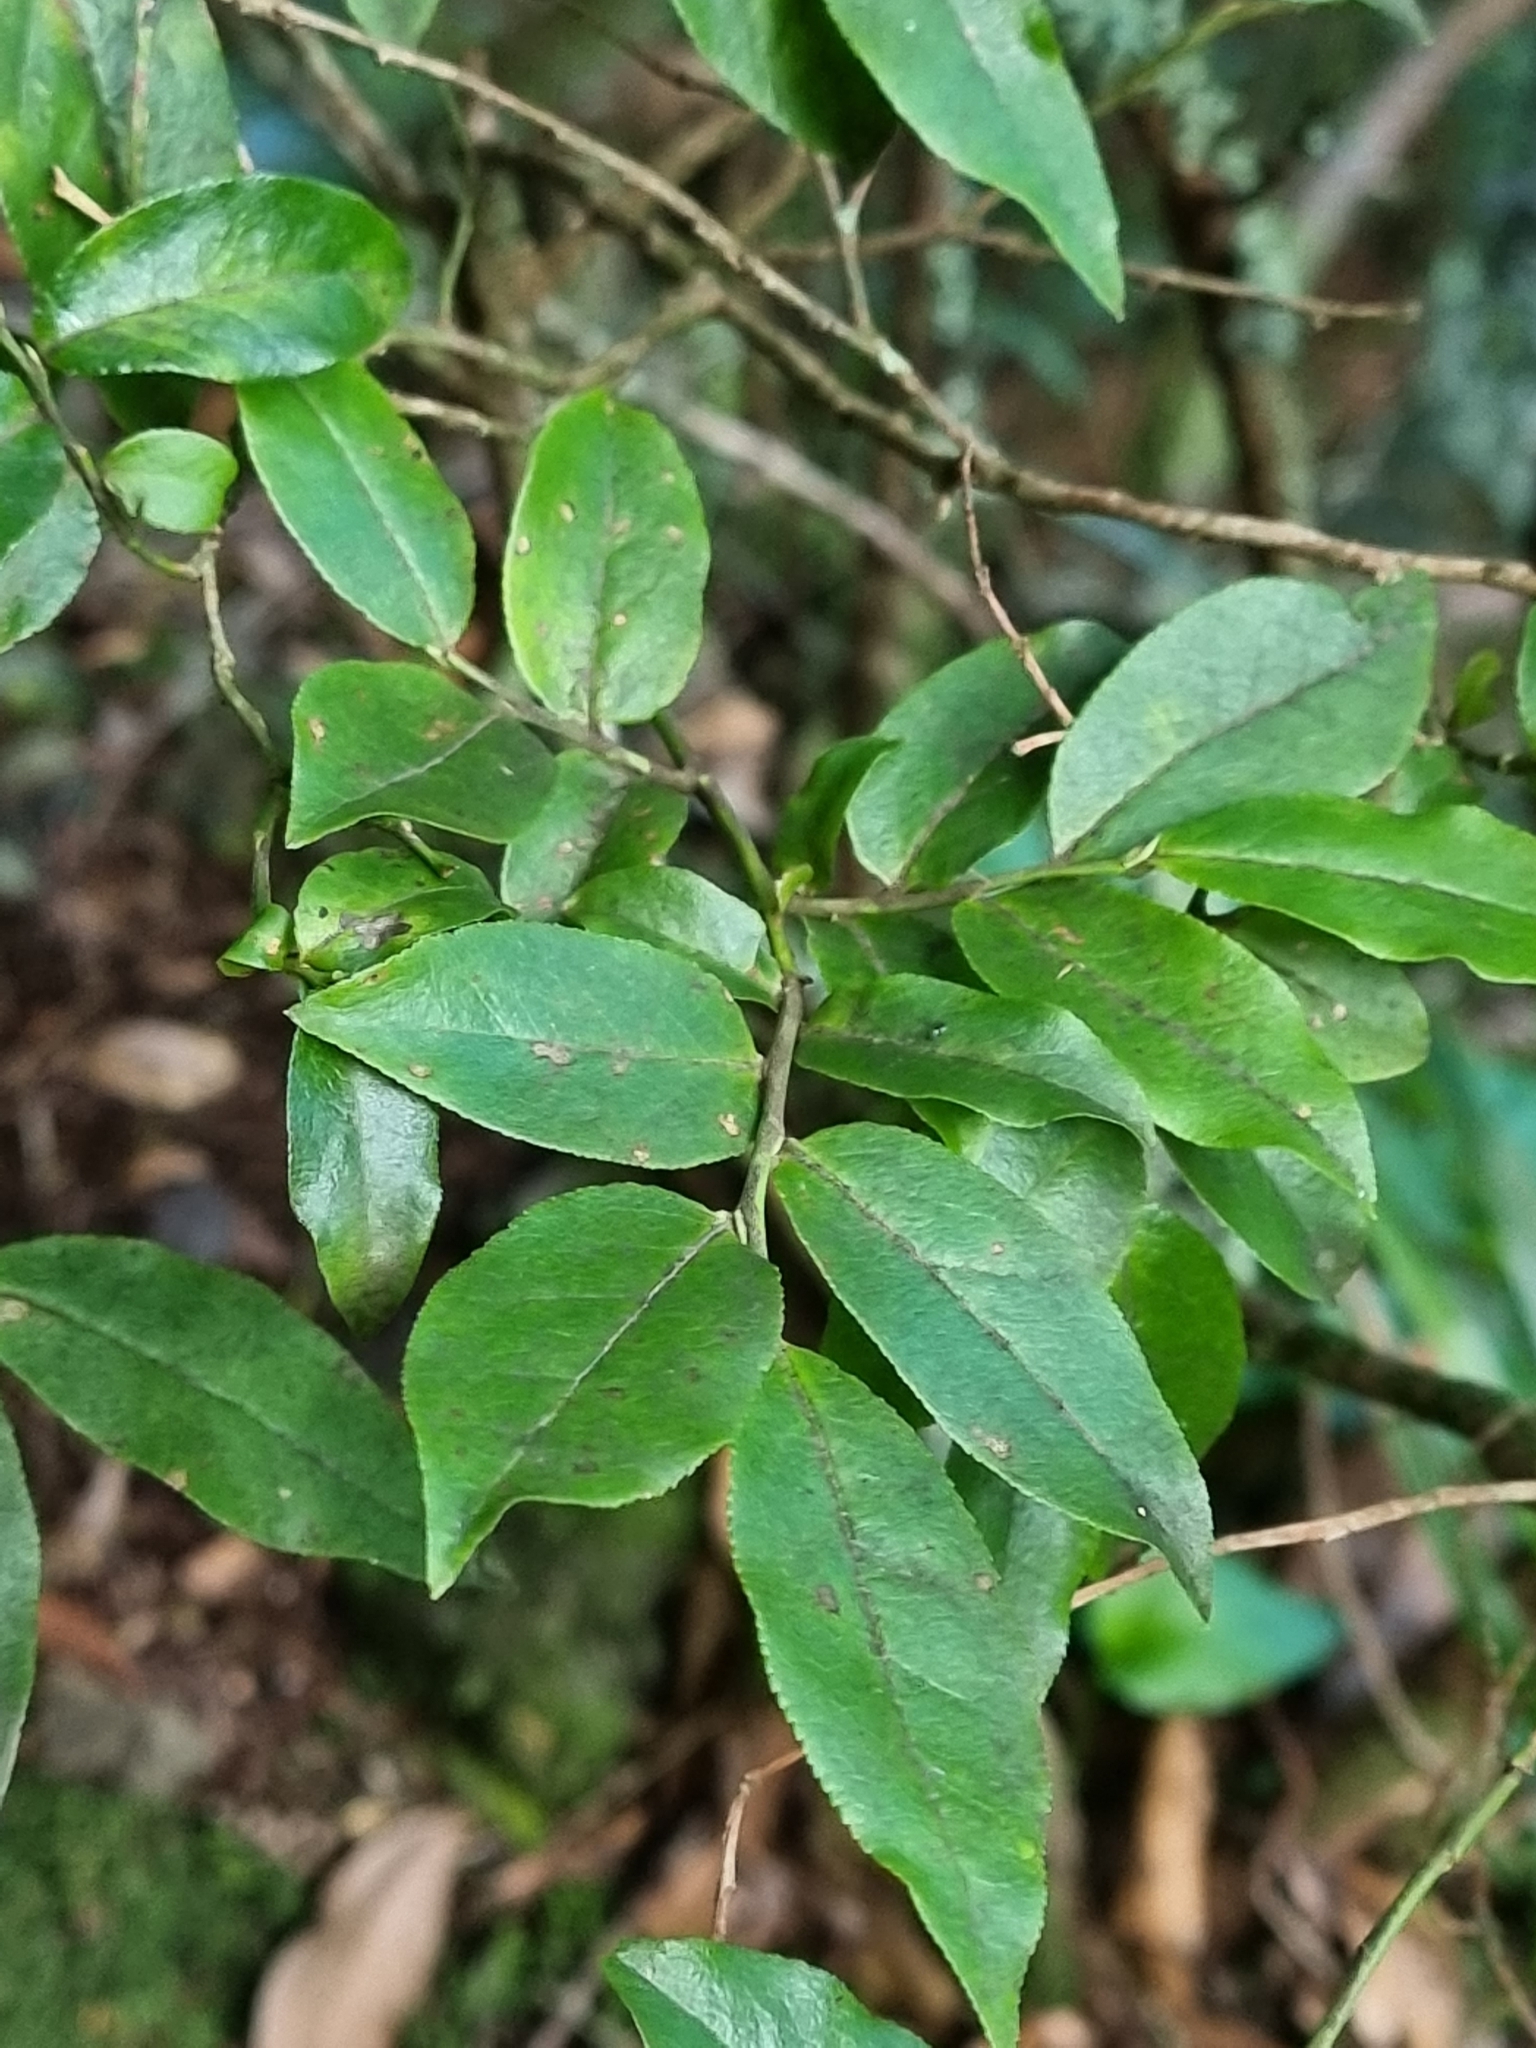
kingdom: Plantae
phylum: Tracheophyta
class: Magnoliopsida
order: Ericales
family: Ericaceae
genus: Vaccinium
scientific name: Vaccinium padifolium
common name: Madeiran blueberry
